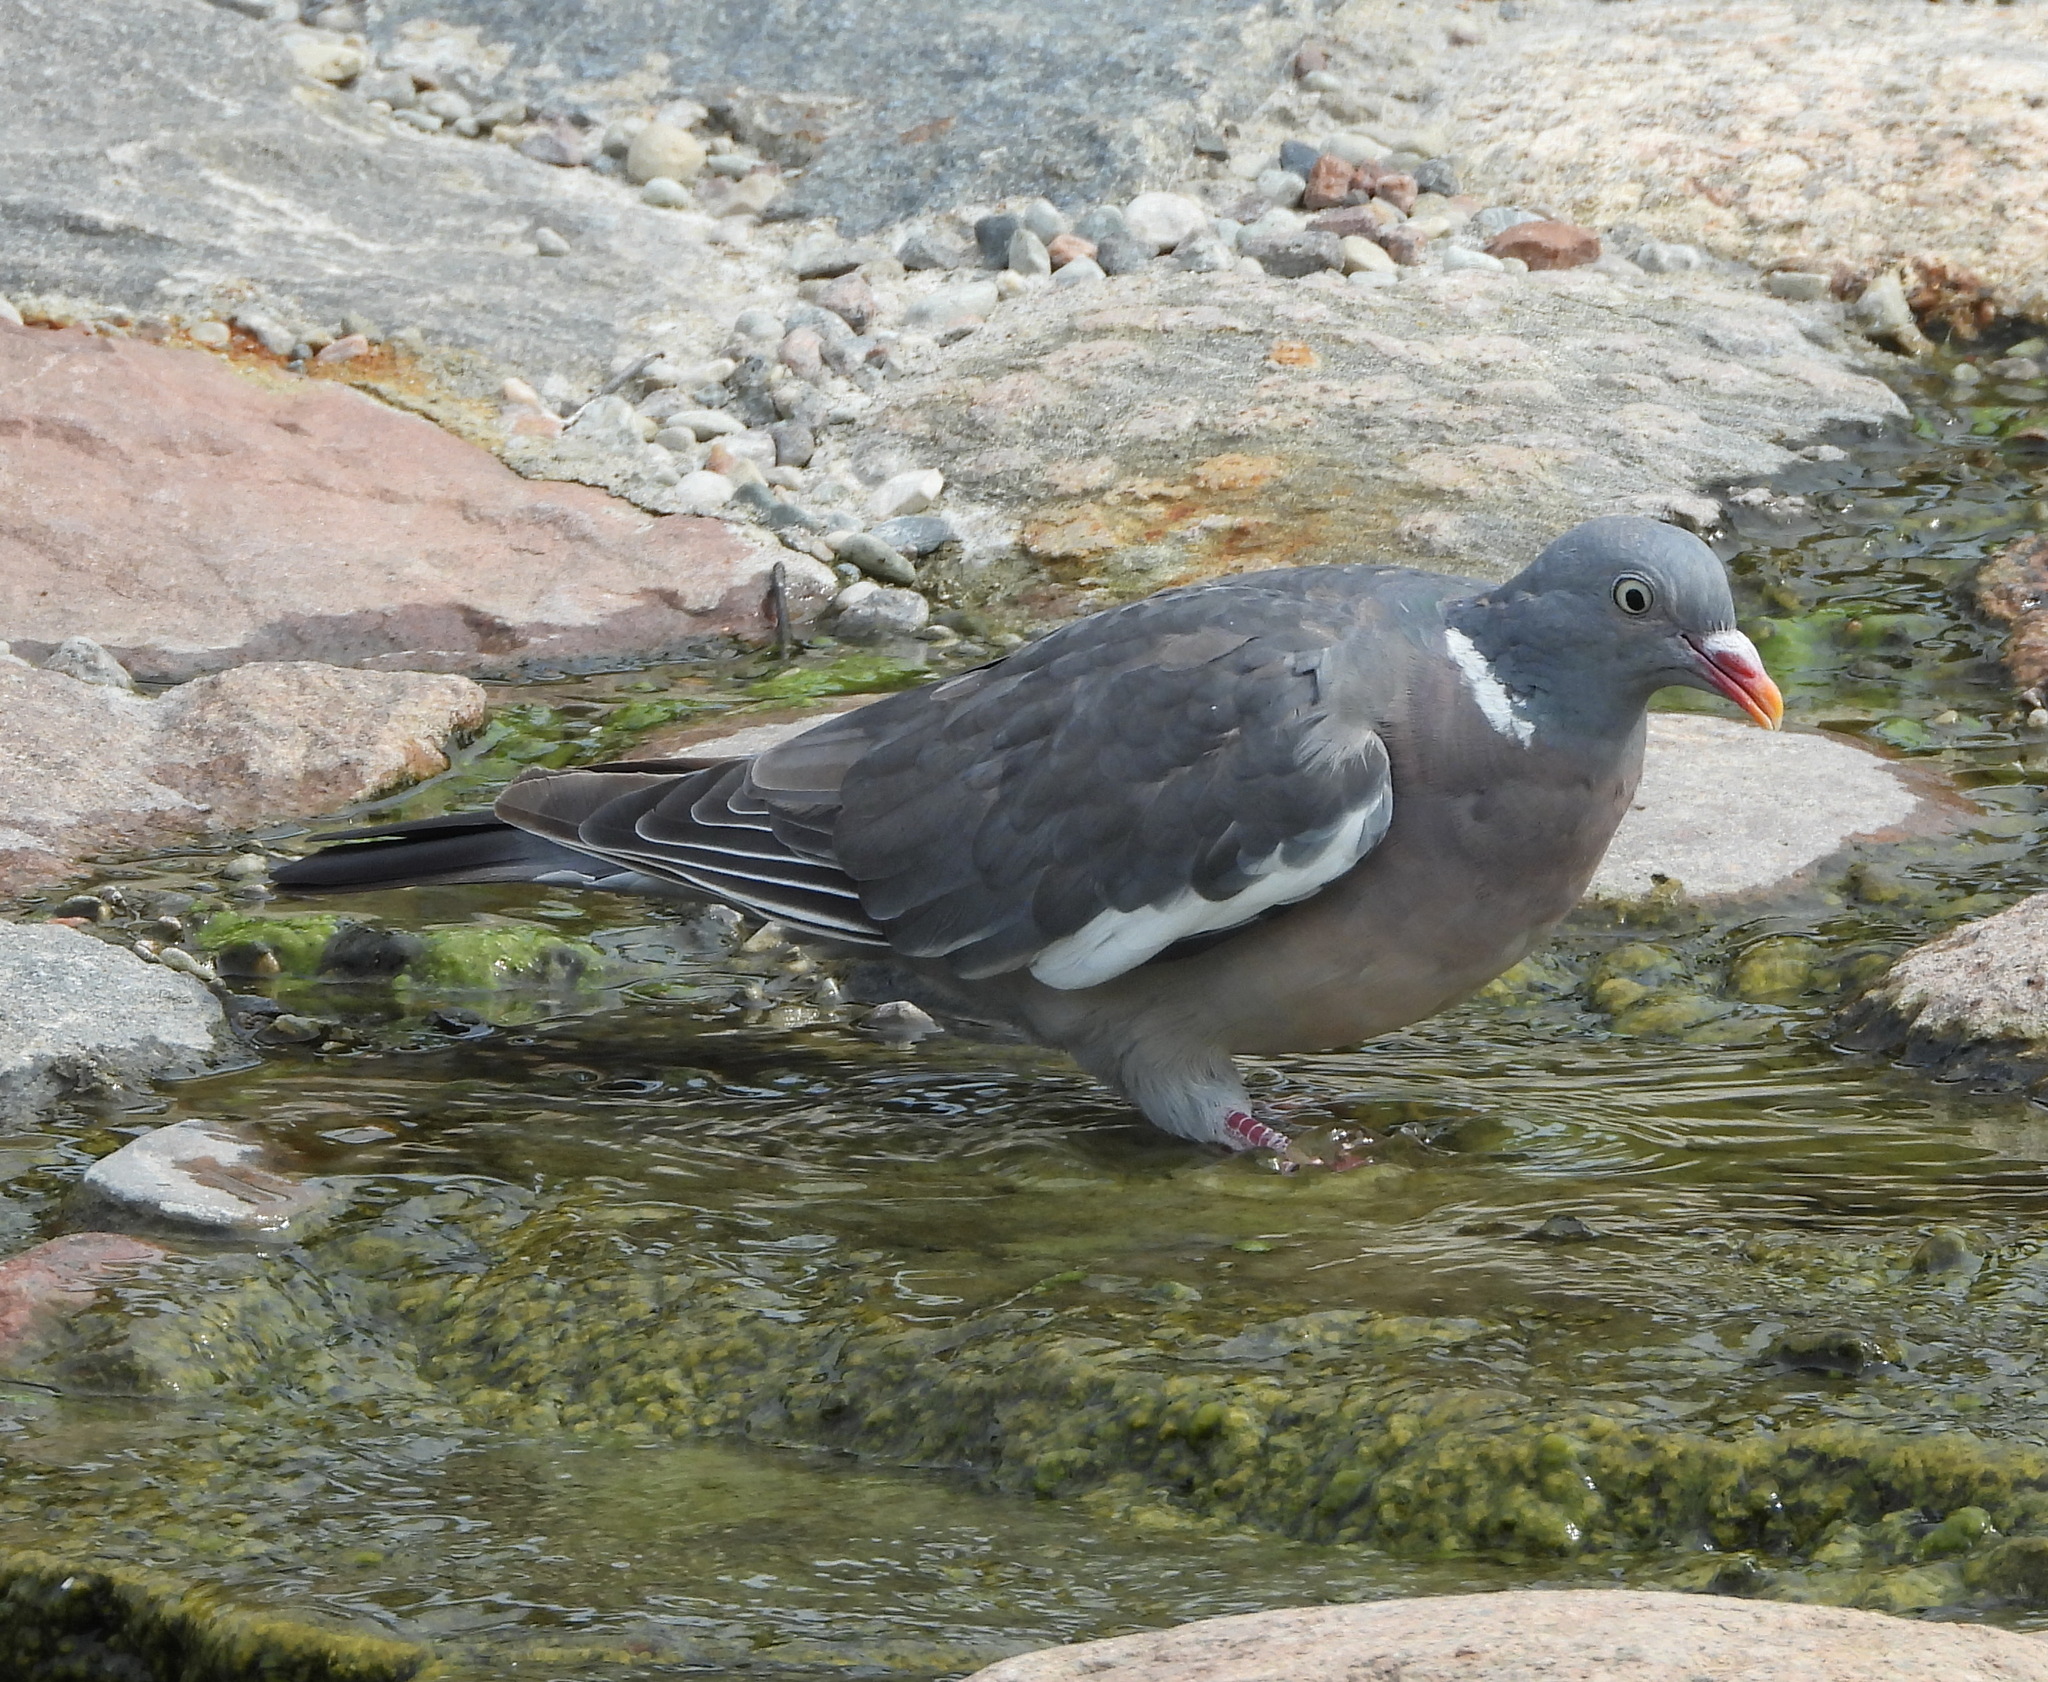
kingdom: Animalia
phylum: Chordata
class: Aves
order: Columbiformes
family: Columbidae
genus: Columba
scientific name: Columba palumbus
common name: Common wood pigeon
